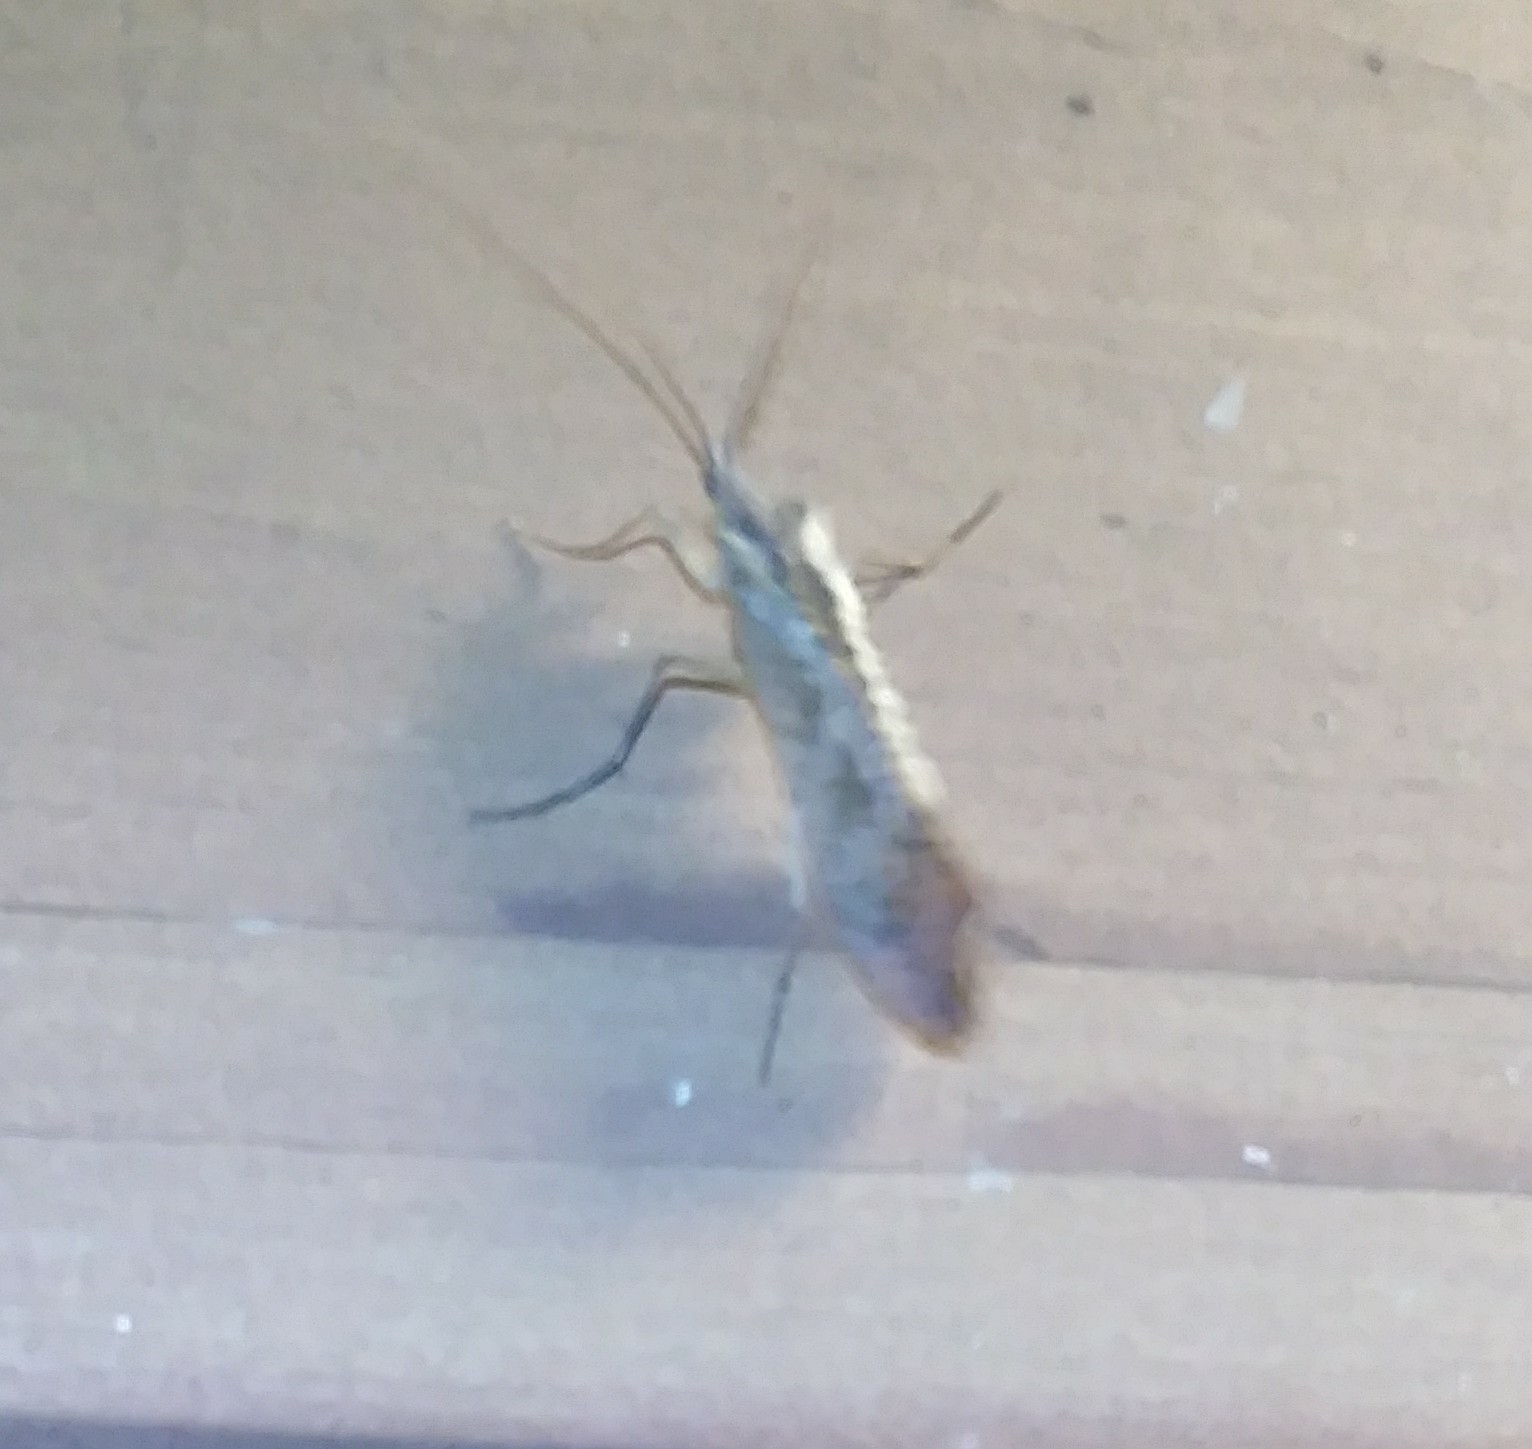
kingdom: Animalia
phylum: Arthropoda
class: Insecta
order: Trichoptera
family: Limnephilidae
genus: Nemotaulius
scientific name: Nemotaulius hostilis
